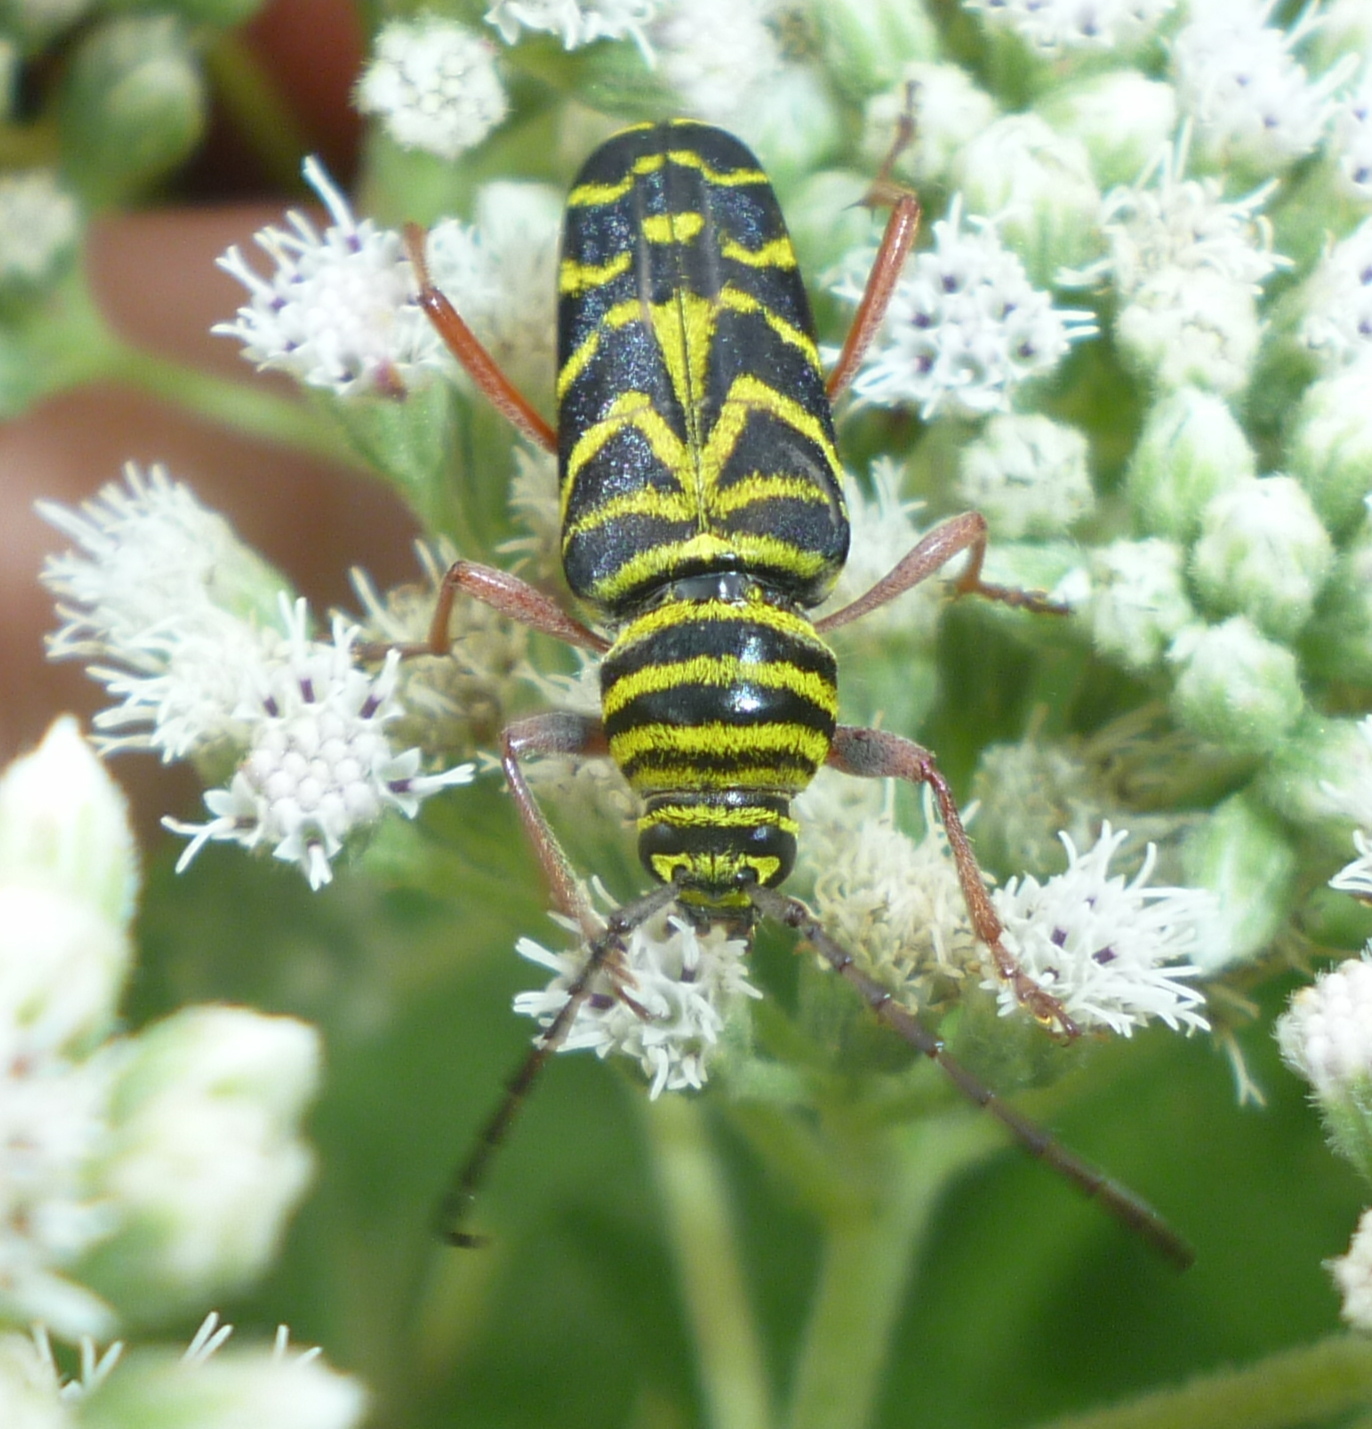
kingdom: Animalia
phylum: Arthropoda
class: Insecta
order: Coleoptera
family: Cerambycidae
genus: Megacyllene
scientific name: Megacyllene robiniae
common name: Locust borer
